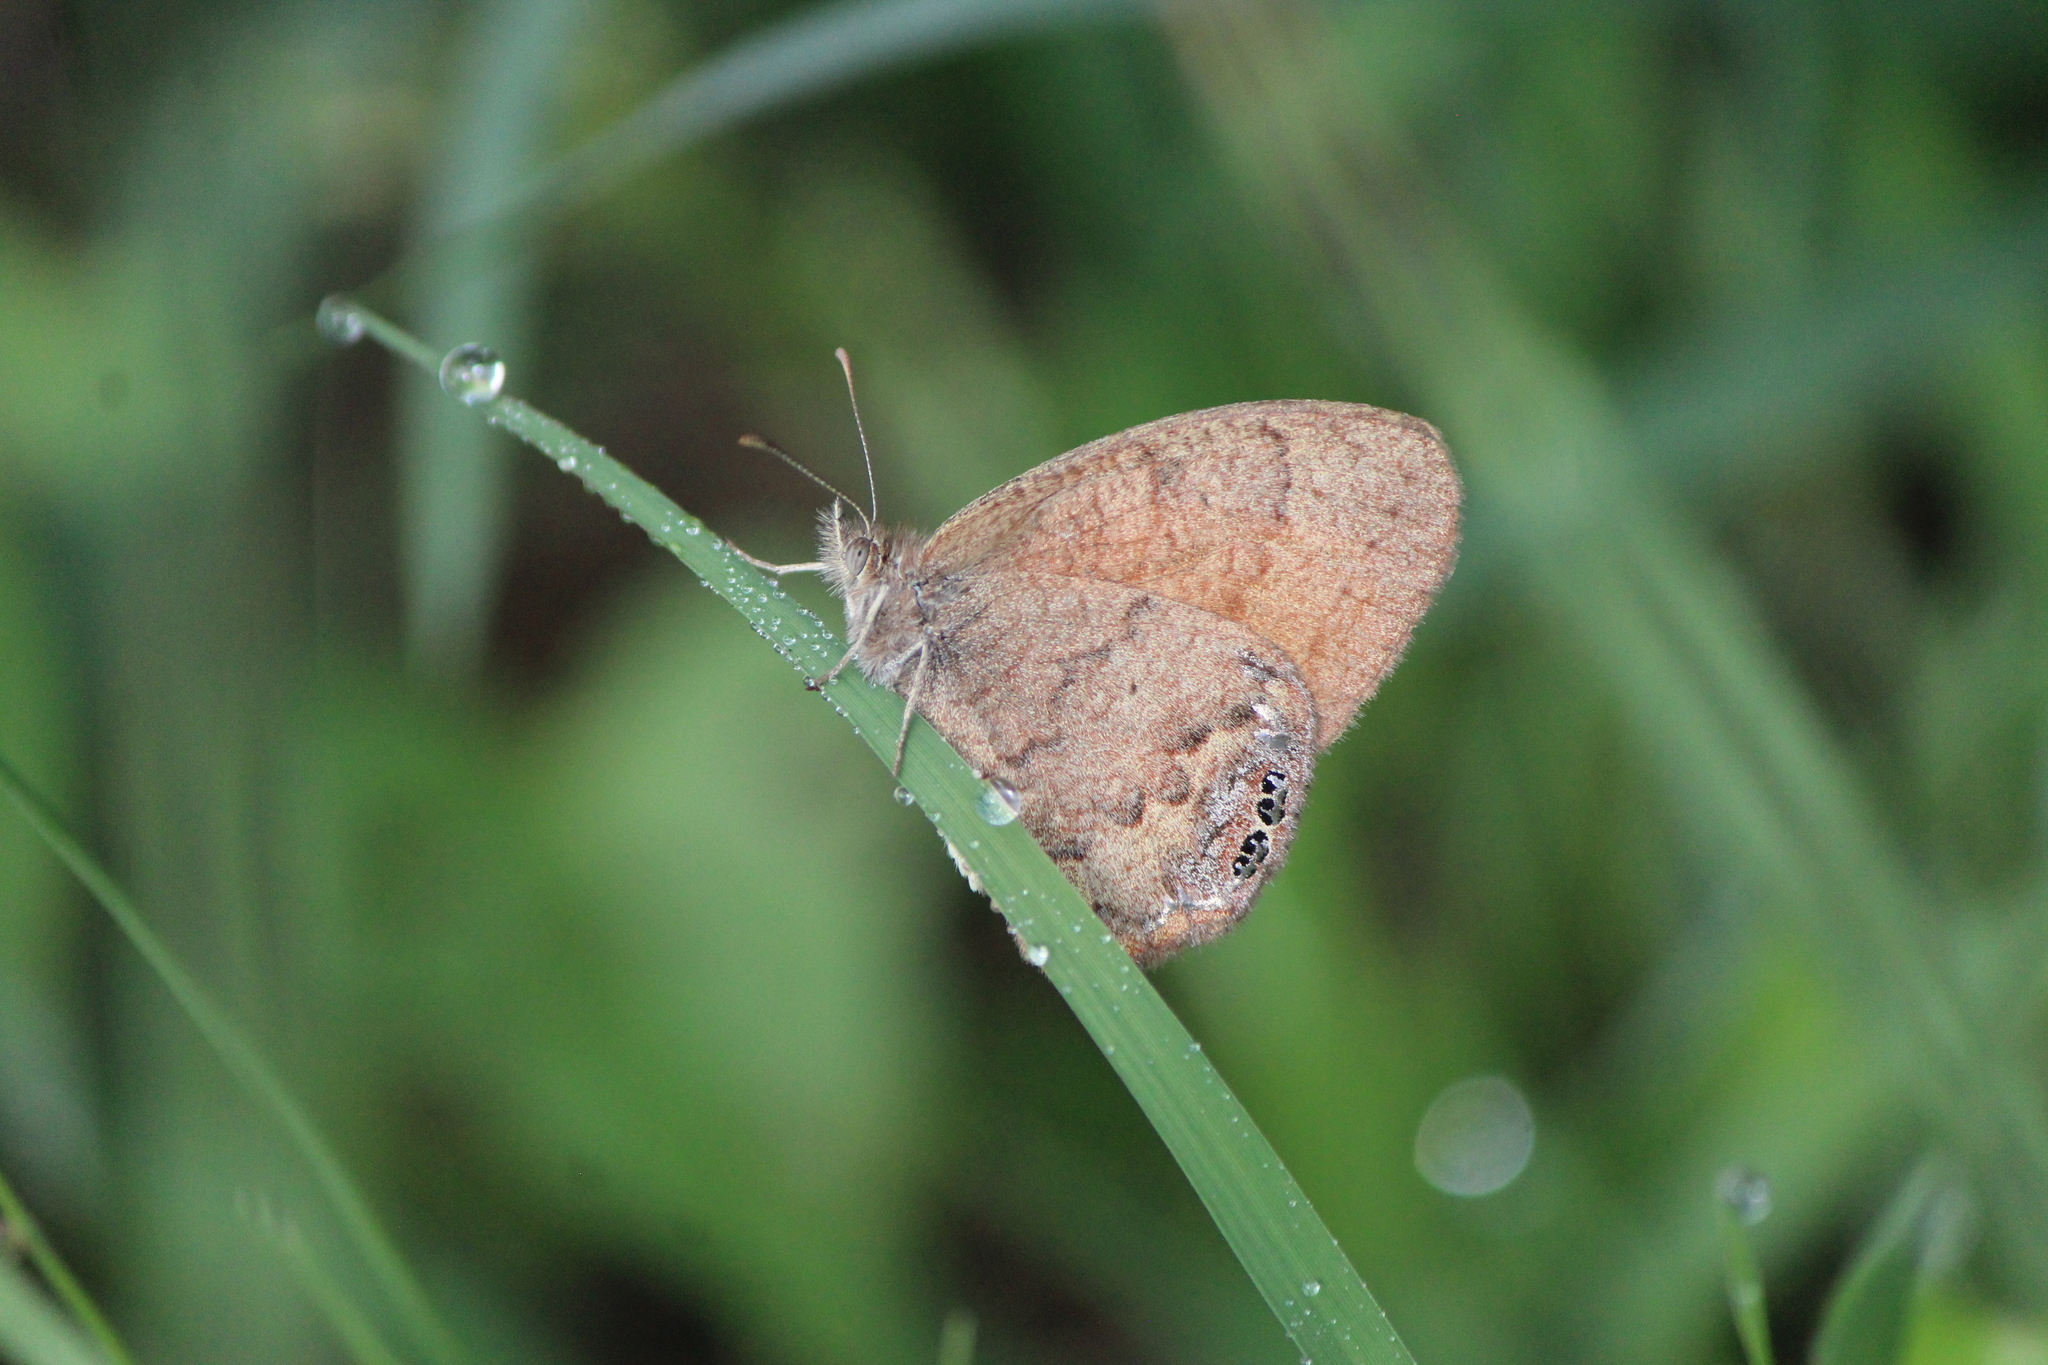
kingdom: Animalia
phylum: Arthropoda
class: Insecta
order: Lepidoptera
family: Nymphalidae
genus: Euptychia
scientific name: Euptychia Cyllopsis pertepida
